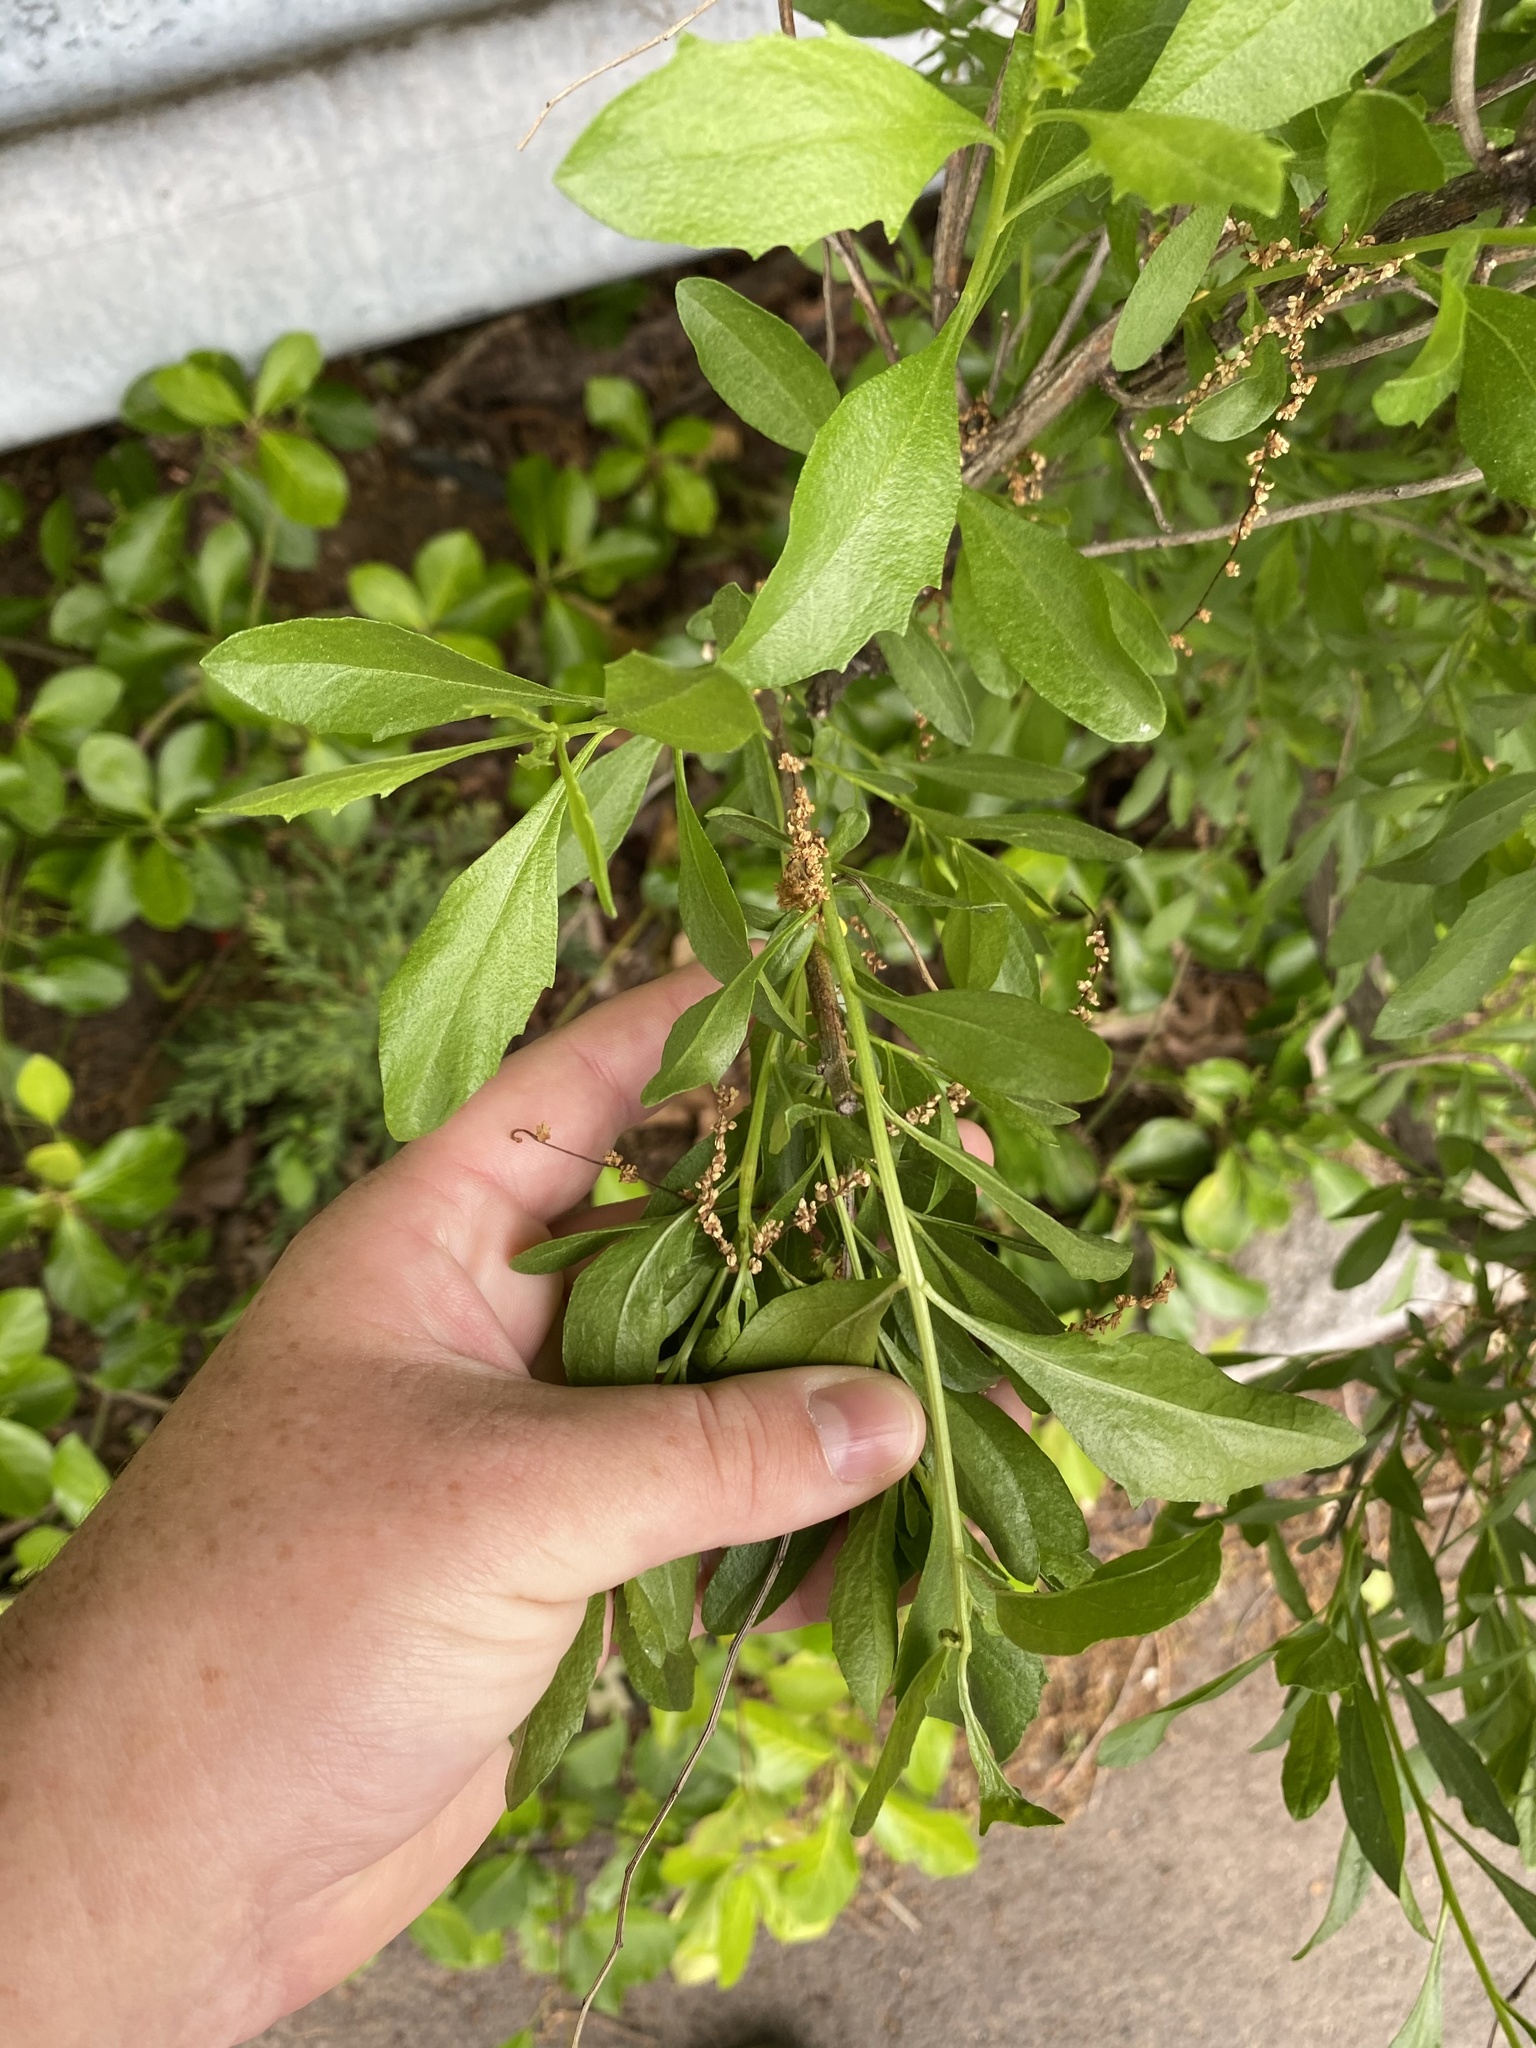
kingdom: Plantae
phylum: Tracheophyta
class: Magnoliopsida
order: Asterales
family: Asteraceae
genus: Baccharis
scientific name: Baccharis halimifolia
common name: Eastern baccharis
